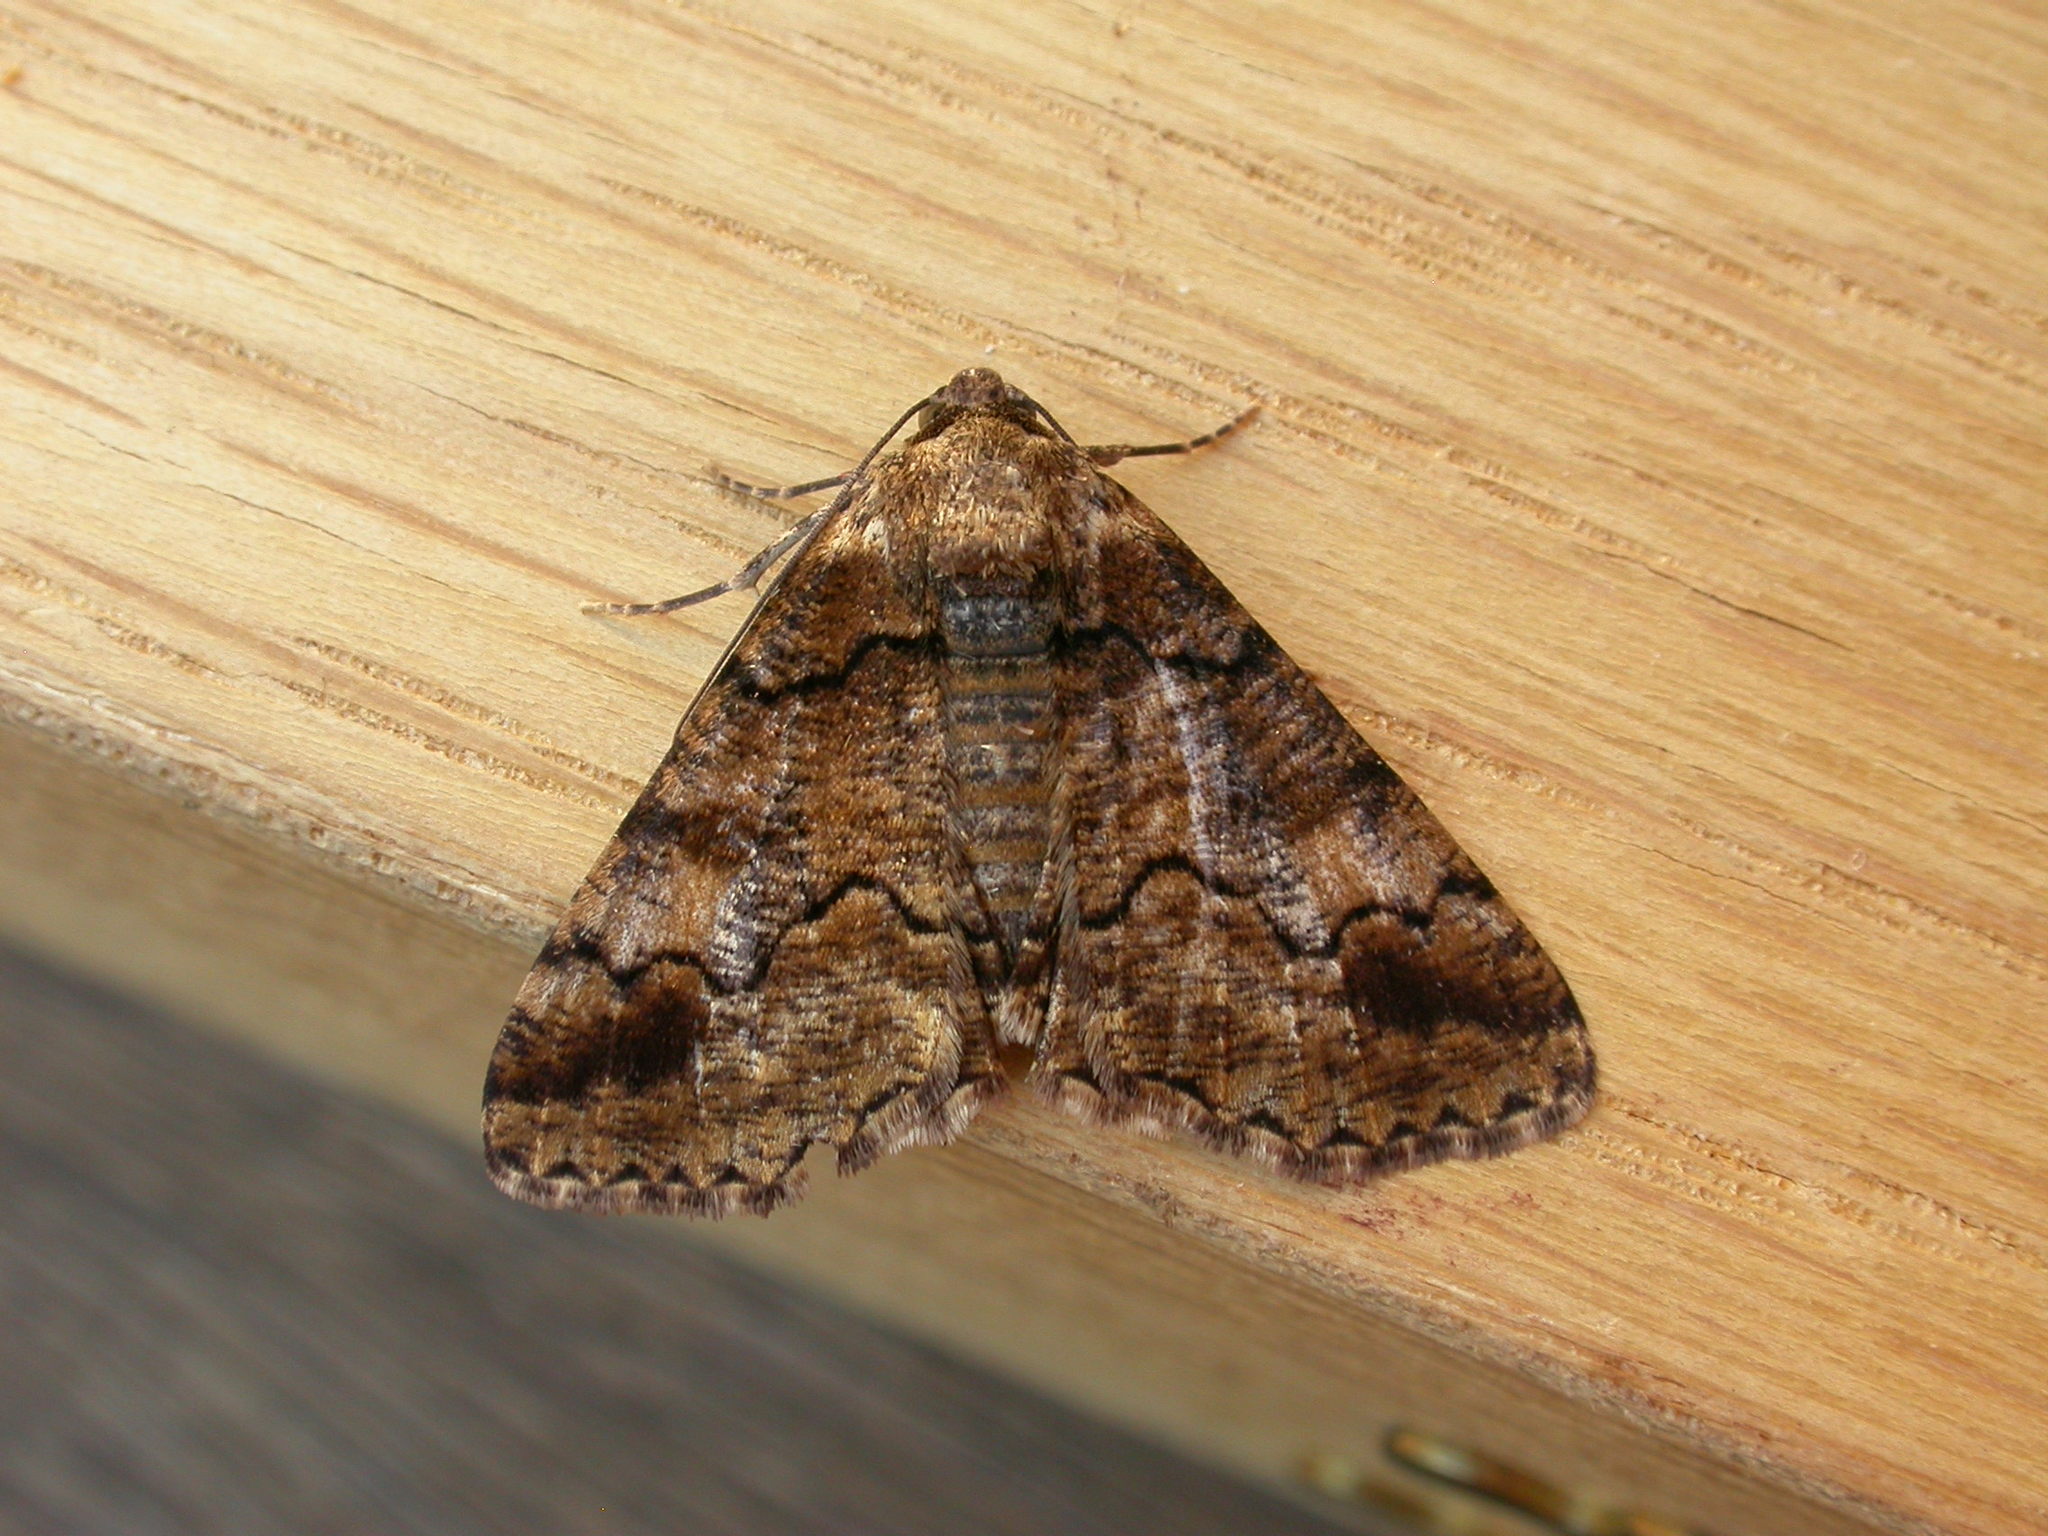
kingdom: Animalia
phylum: Arthropoda
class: Insecta
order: Lepidoptera
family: Geometridae
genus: Cryphaea
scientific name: Cryphaea xylina
